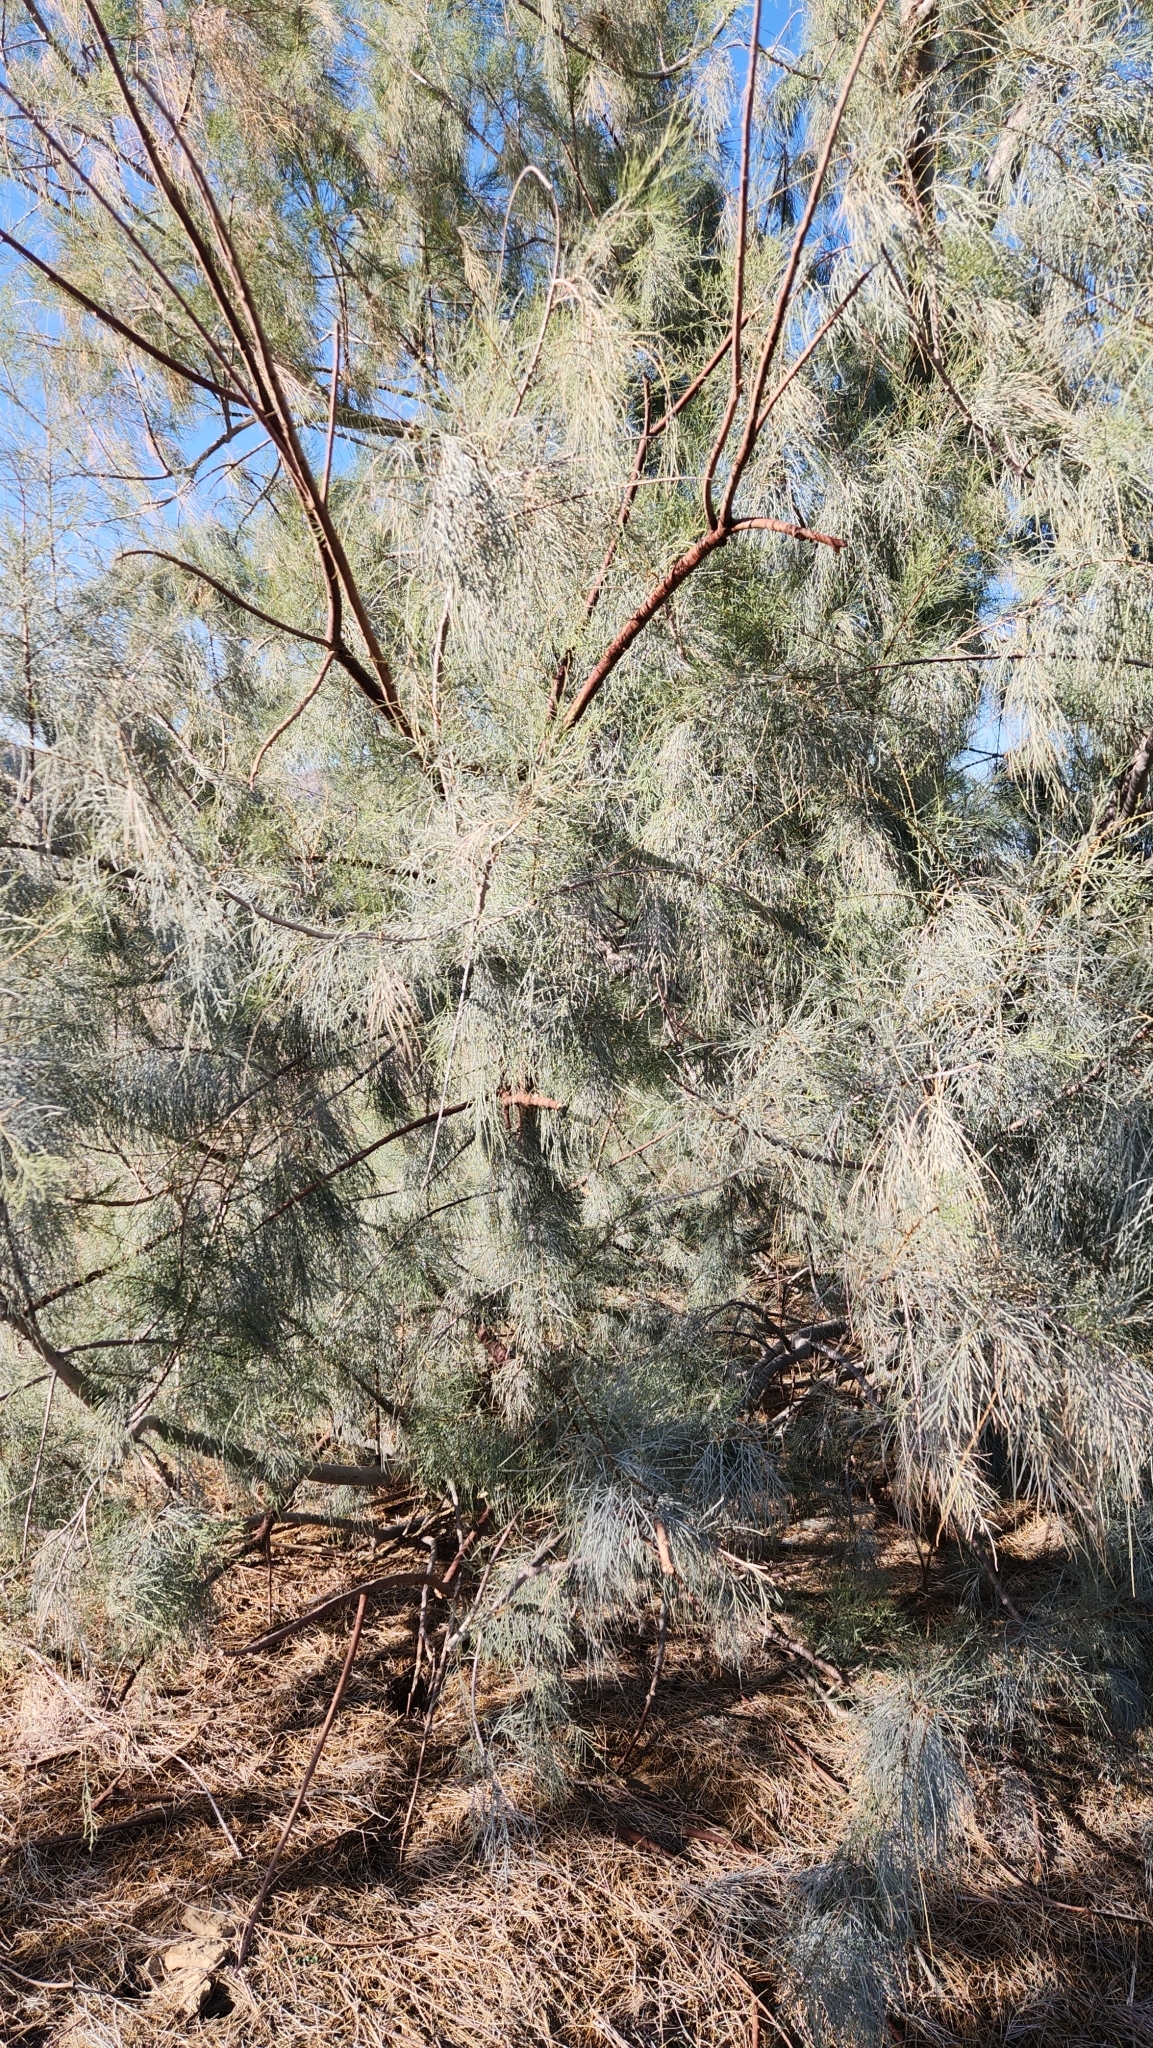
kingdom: Plantae
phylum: Tracheophyta
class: Magnoliopsida
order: Caryophyllales
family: Tamaricaceae
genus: Tamarix
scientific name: Tamarix aphylla
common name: Athel tamarisk
